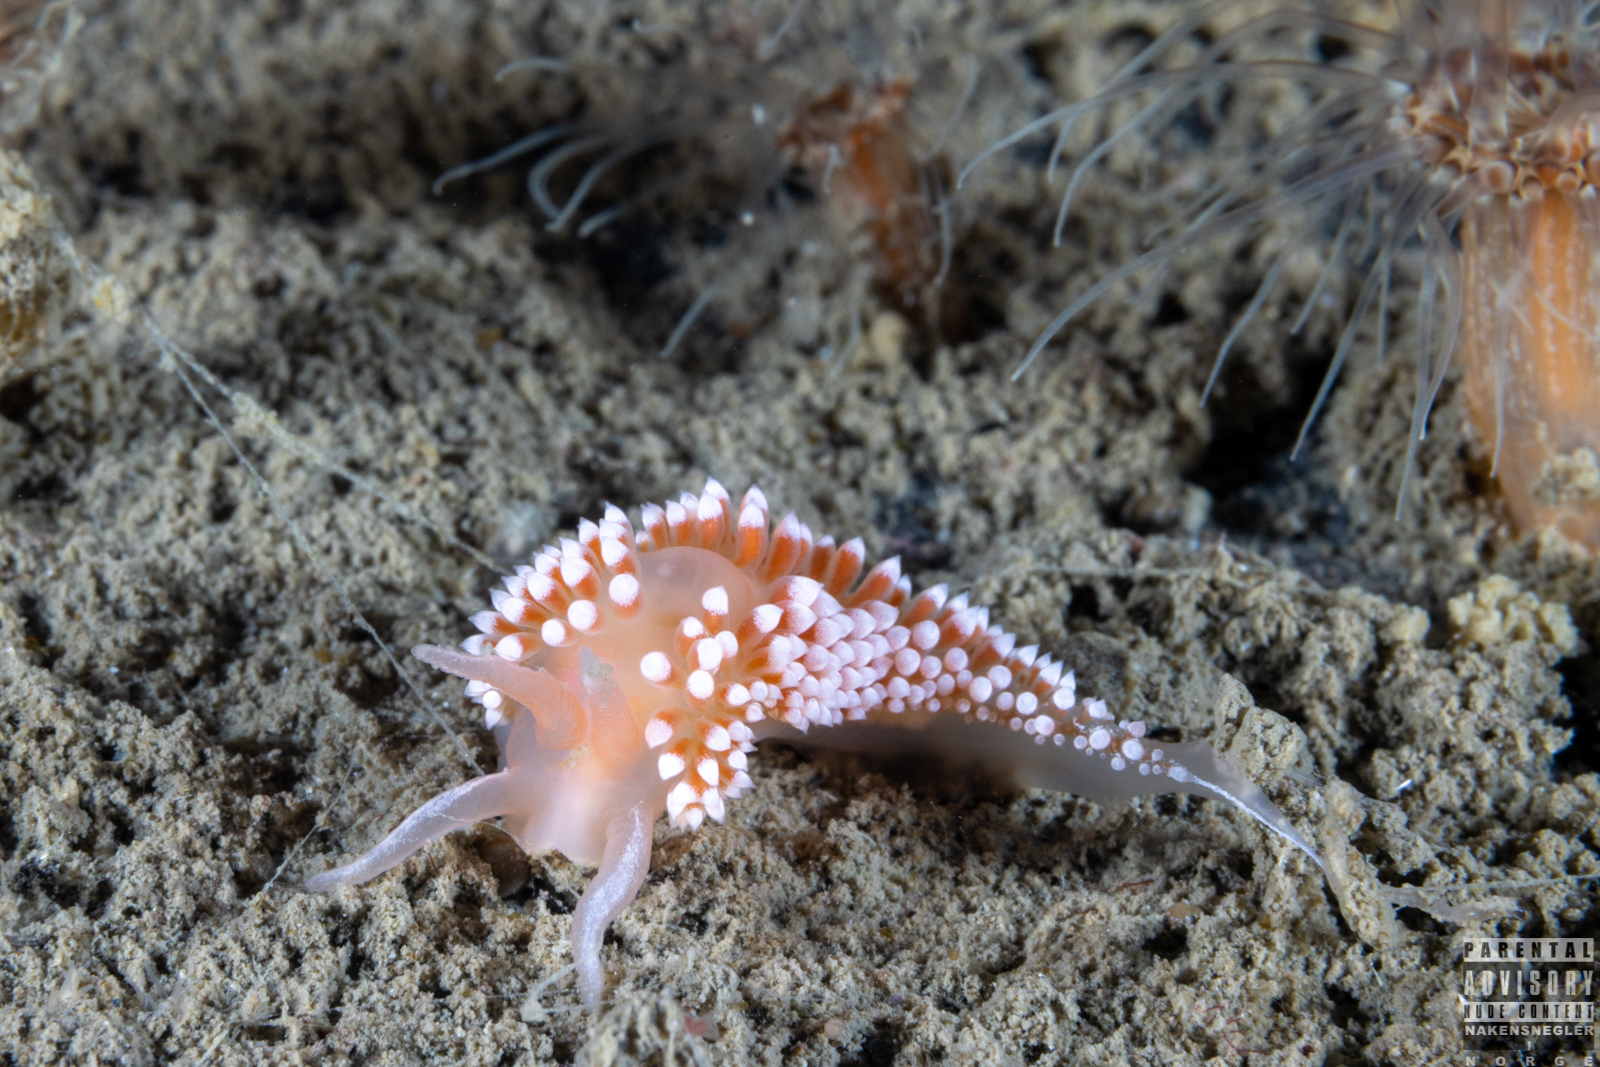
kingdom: Animalia
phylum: Mollusca
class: Gastropoda
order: Nudibranchia
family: Coryphellidae
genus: Coryphella
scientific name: Coryphella verrucosa
